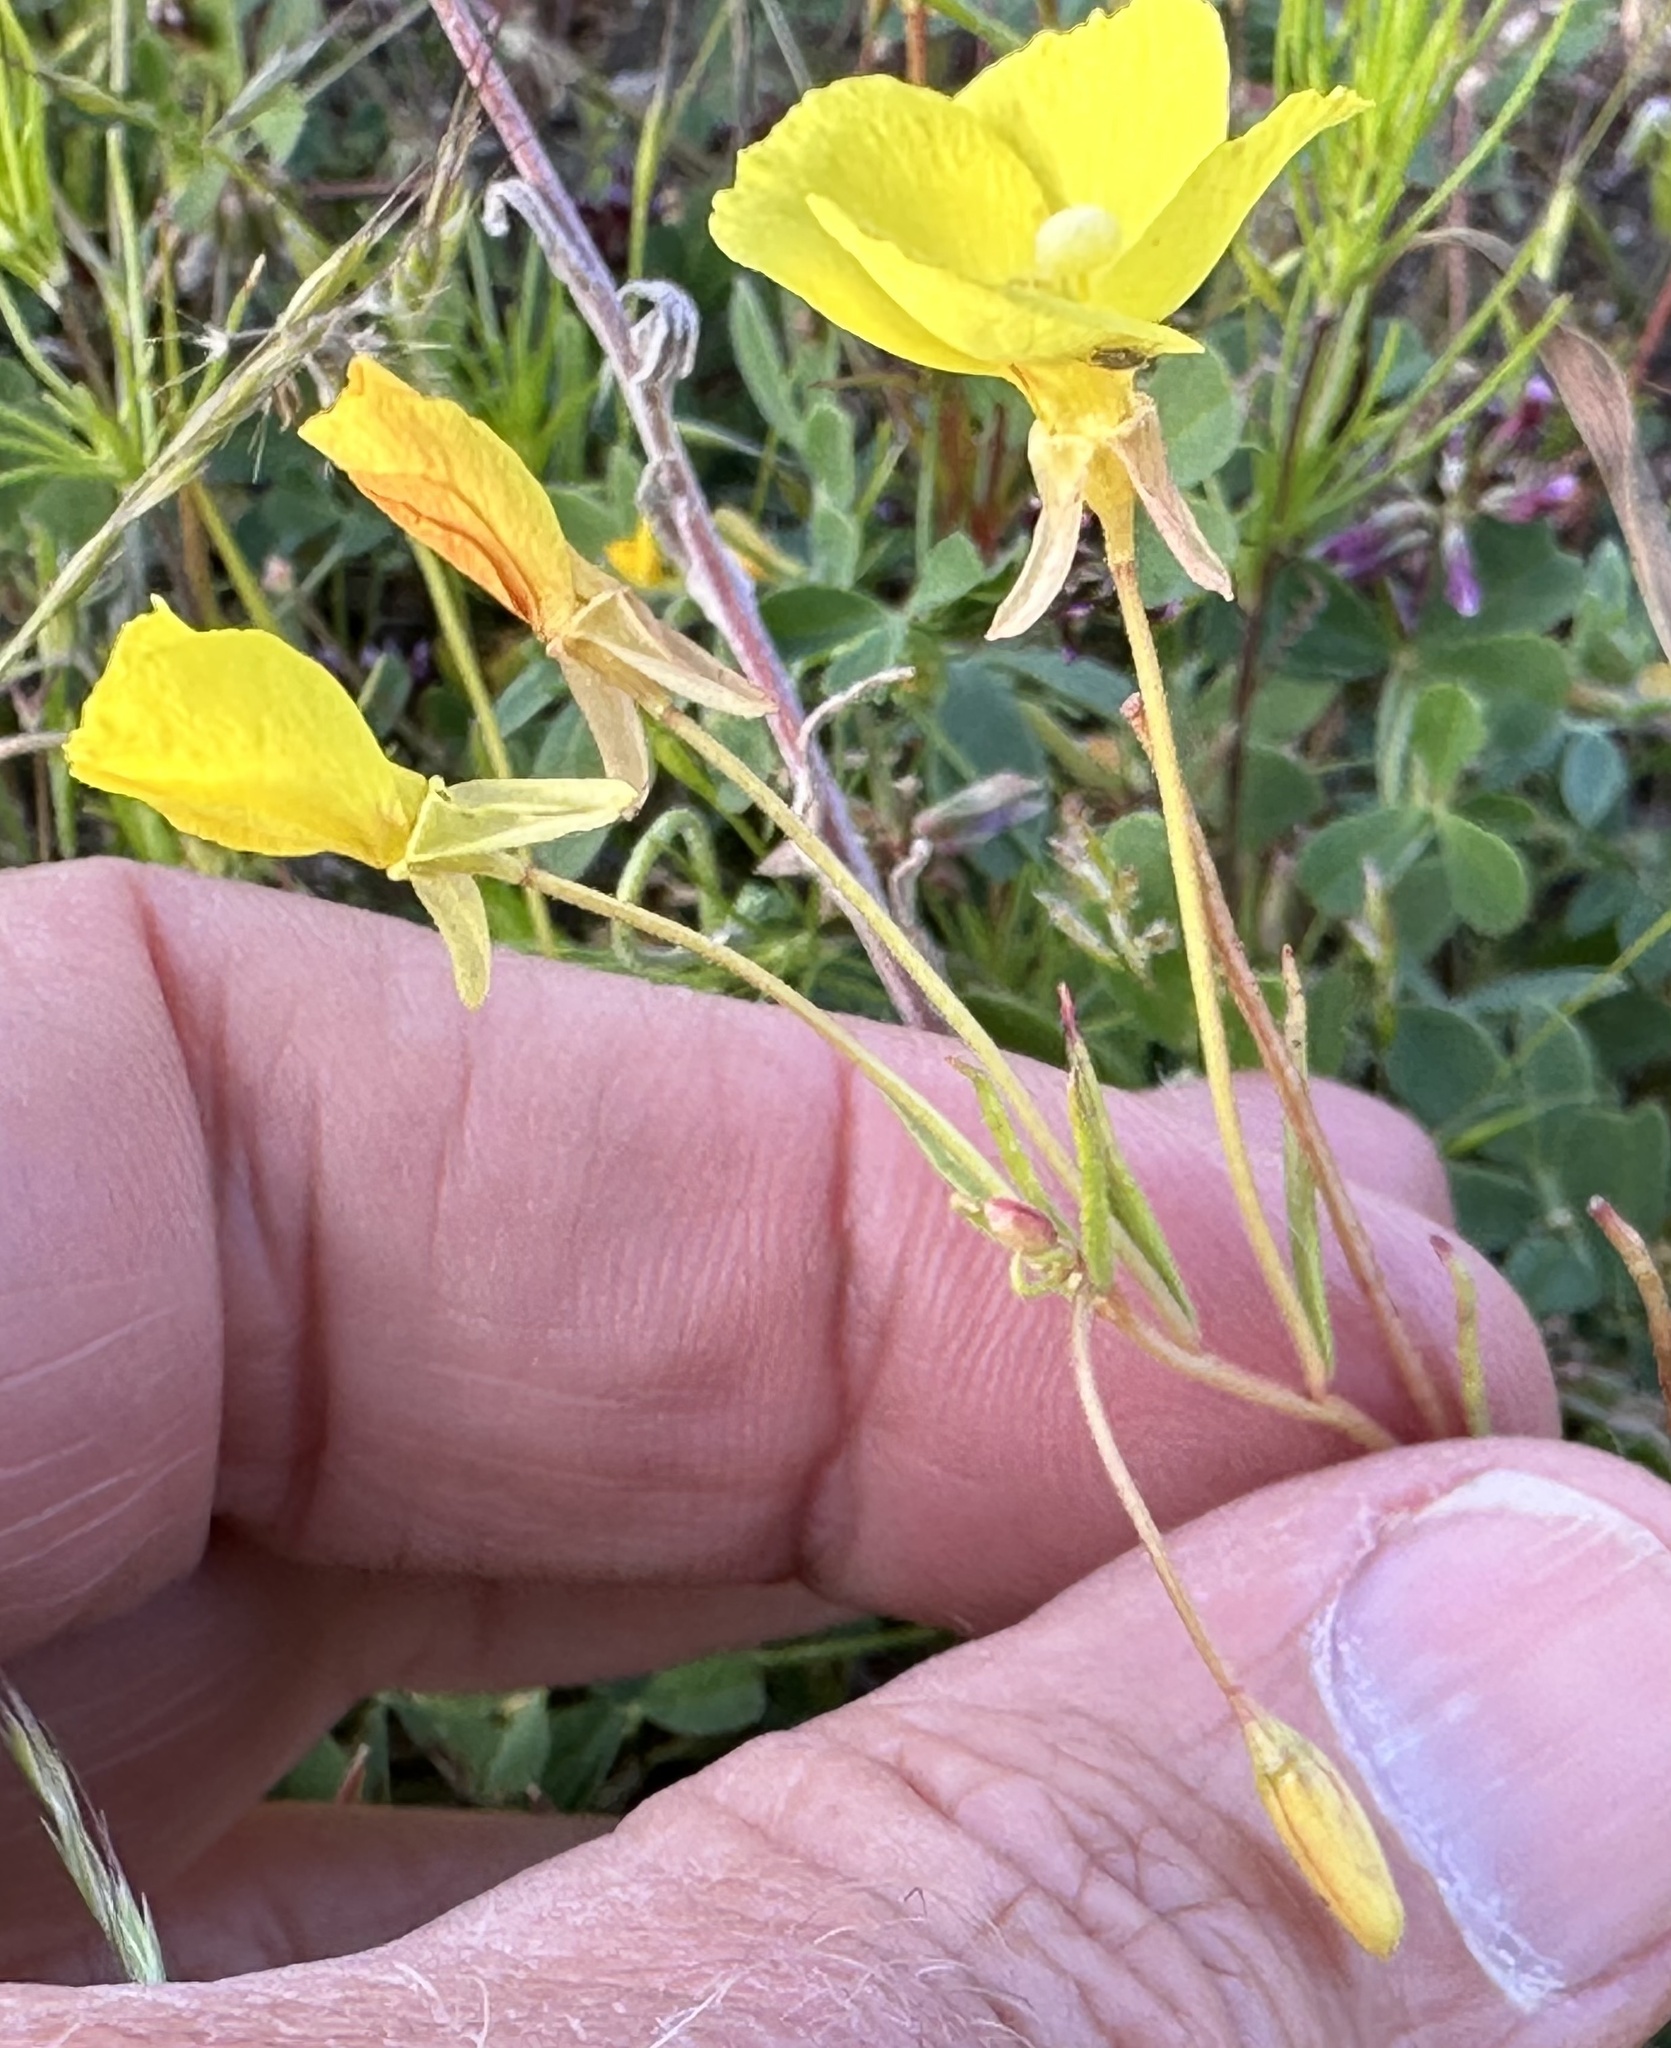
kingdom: Plantae
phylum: Tracheophyta
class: Magnoliopsida
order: Myrtales
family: Onagraceae
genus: Camissonia
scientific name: Camissonia campestris
